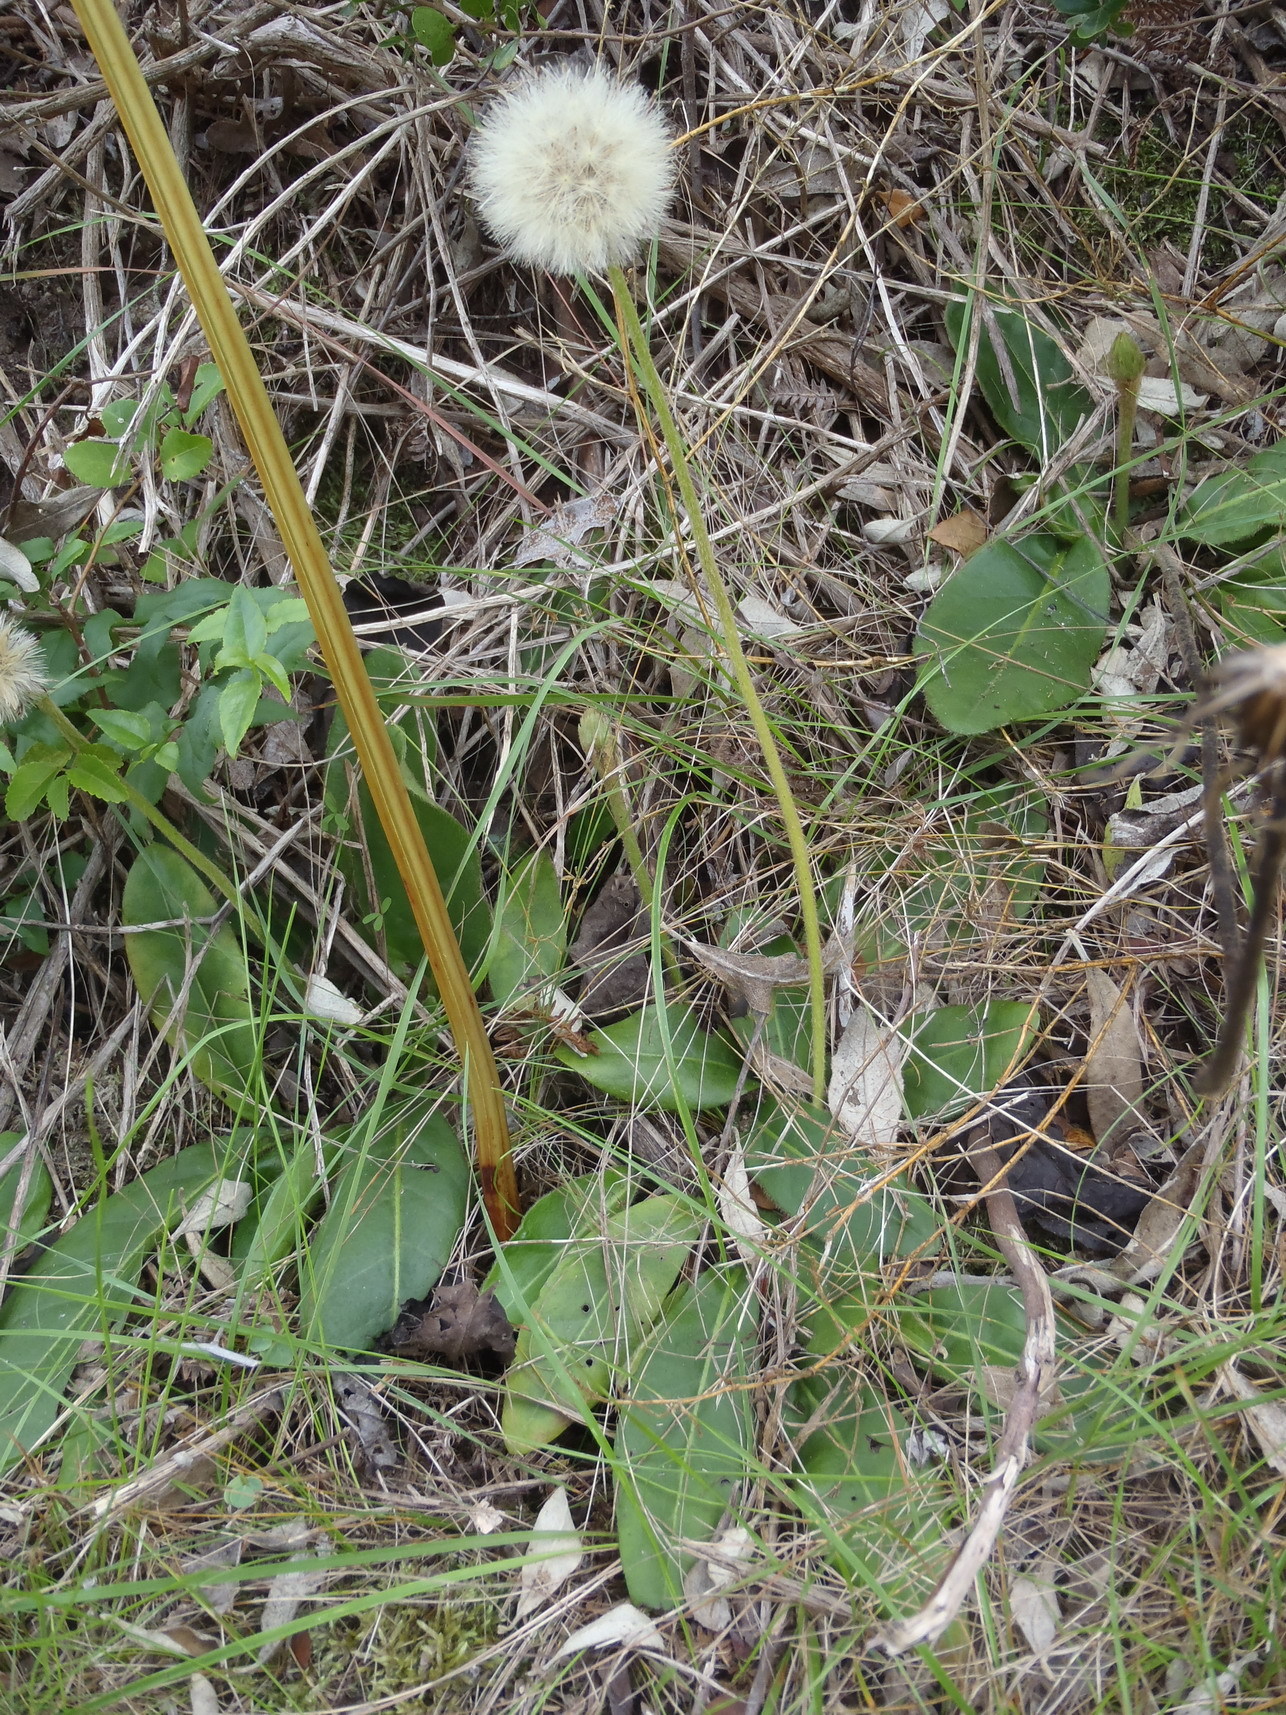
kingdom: Plantae
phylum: Tracheophyta
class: Magnoliopsida
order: Asterales
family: Asteraceae
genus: Piloselloides
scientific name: Piloselloides hirsuta
